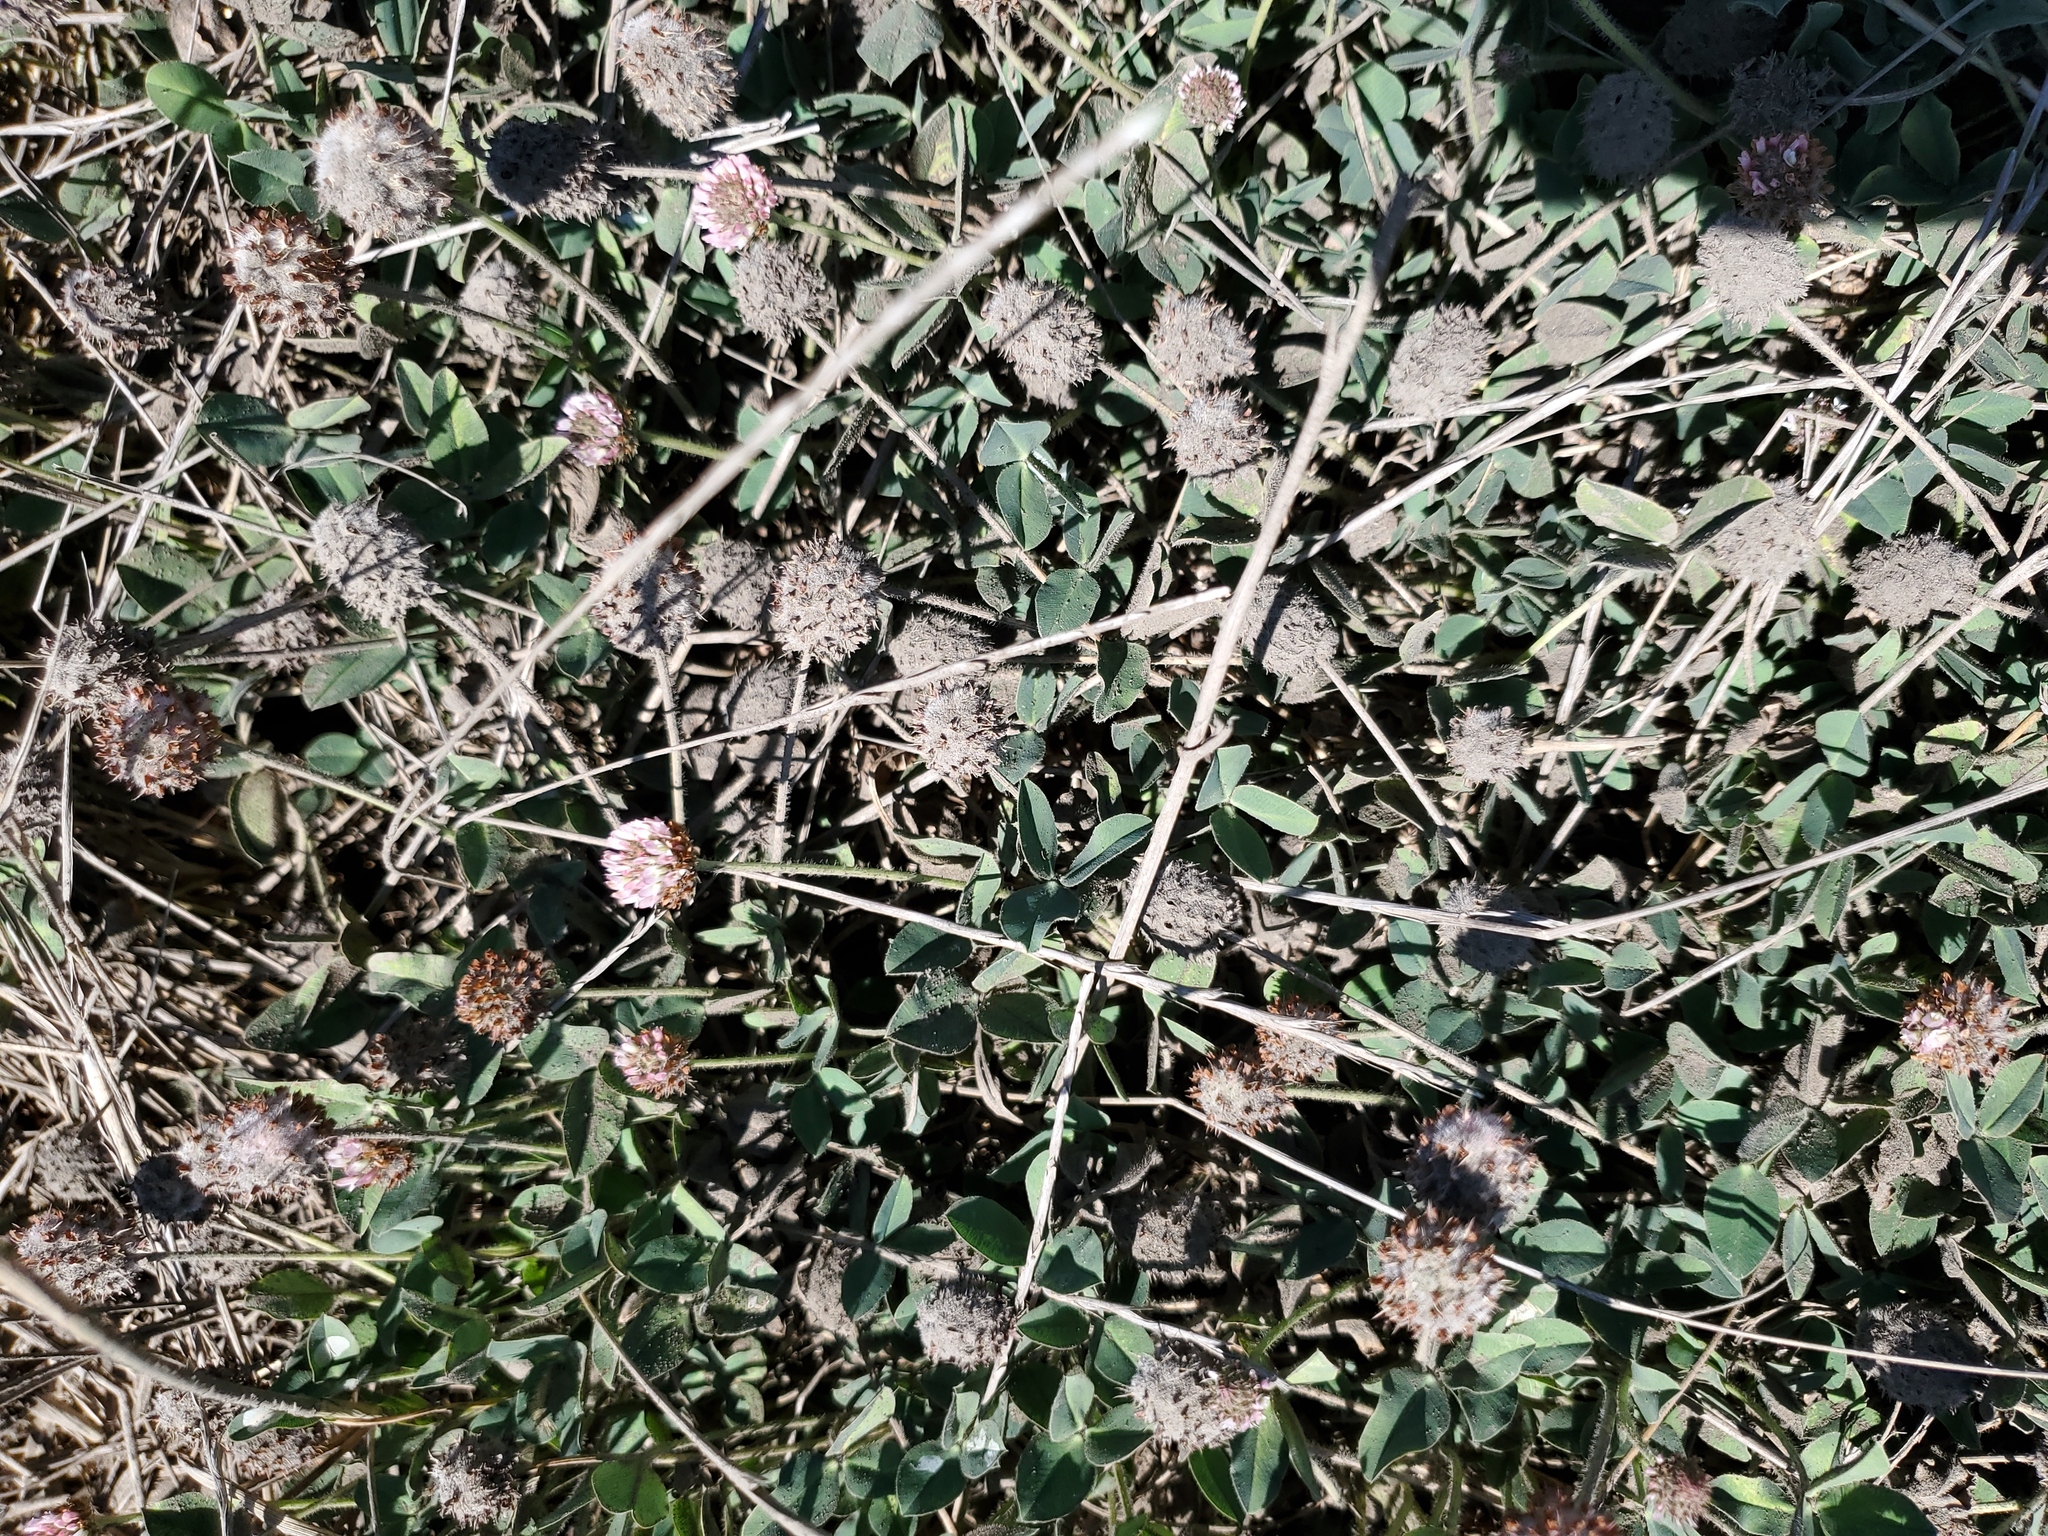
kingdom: Plantae
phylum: Tracheophyta
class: Magnoliopsida
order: Fabales
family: Fabaceae
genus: Trifolium
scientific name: Trifolium fragiferum
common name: Strawberry clover
